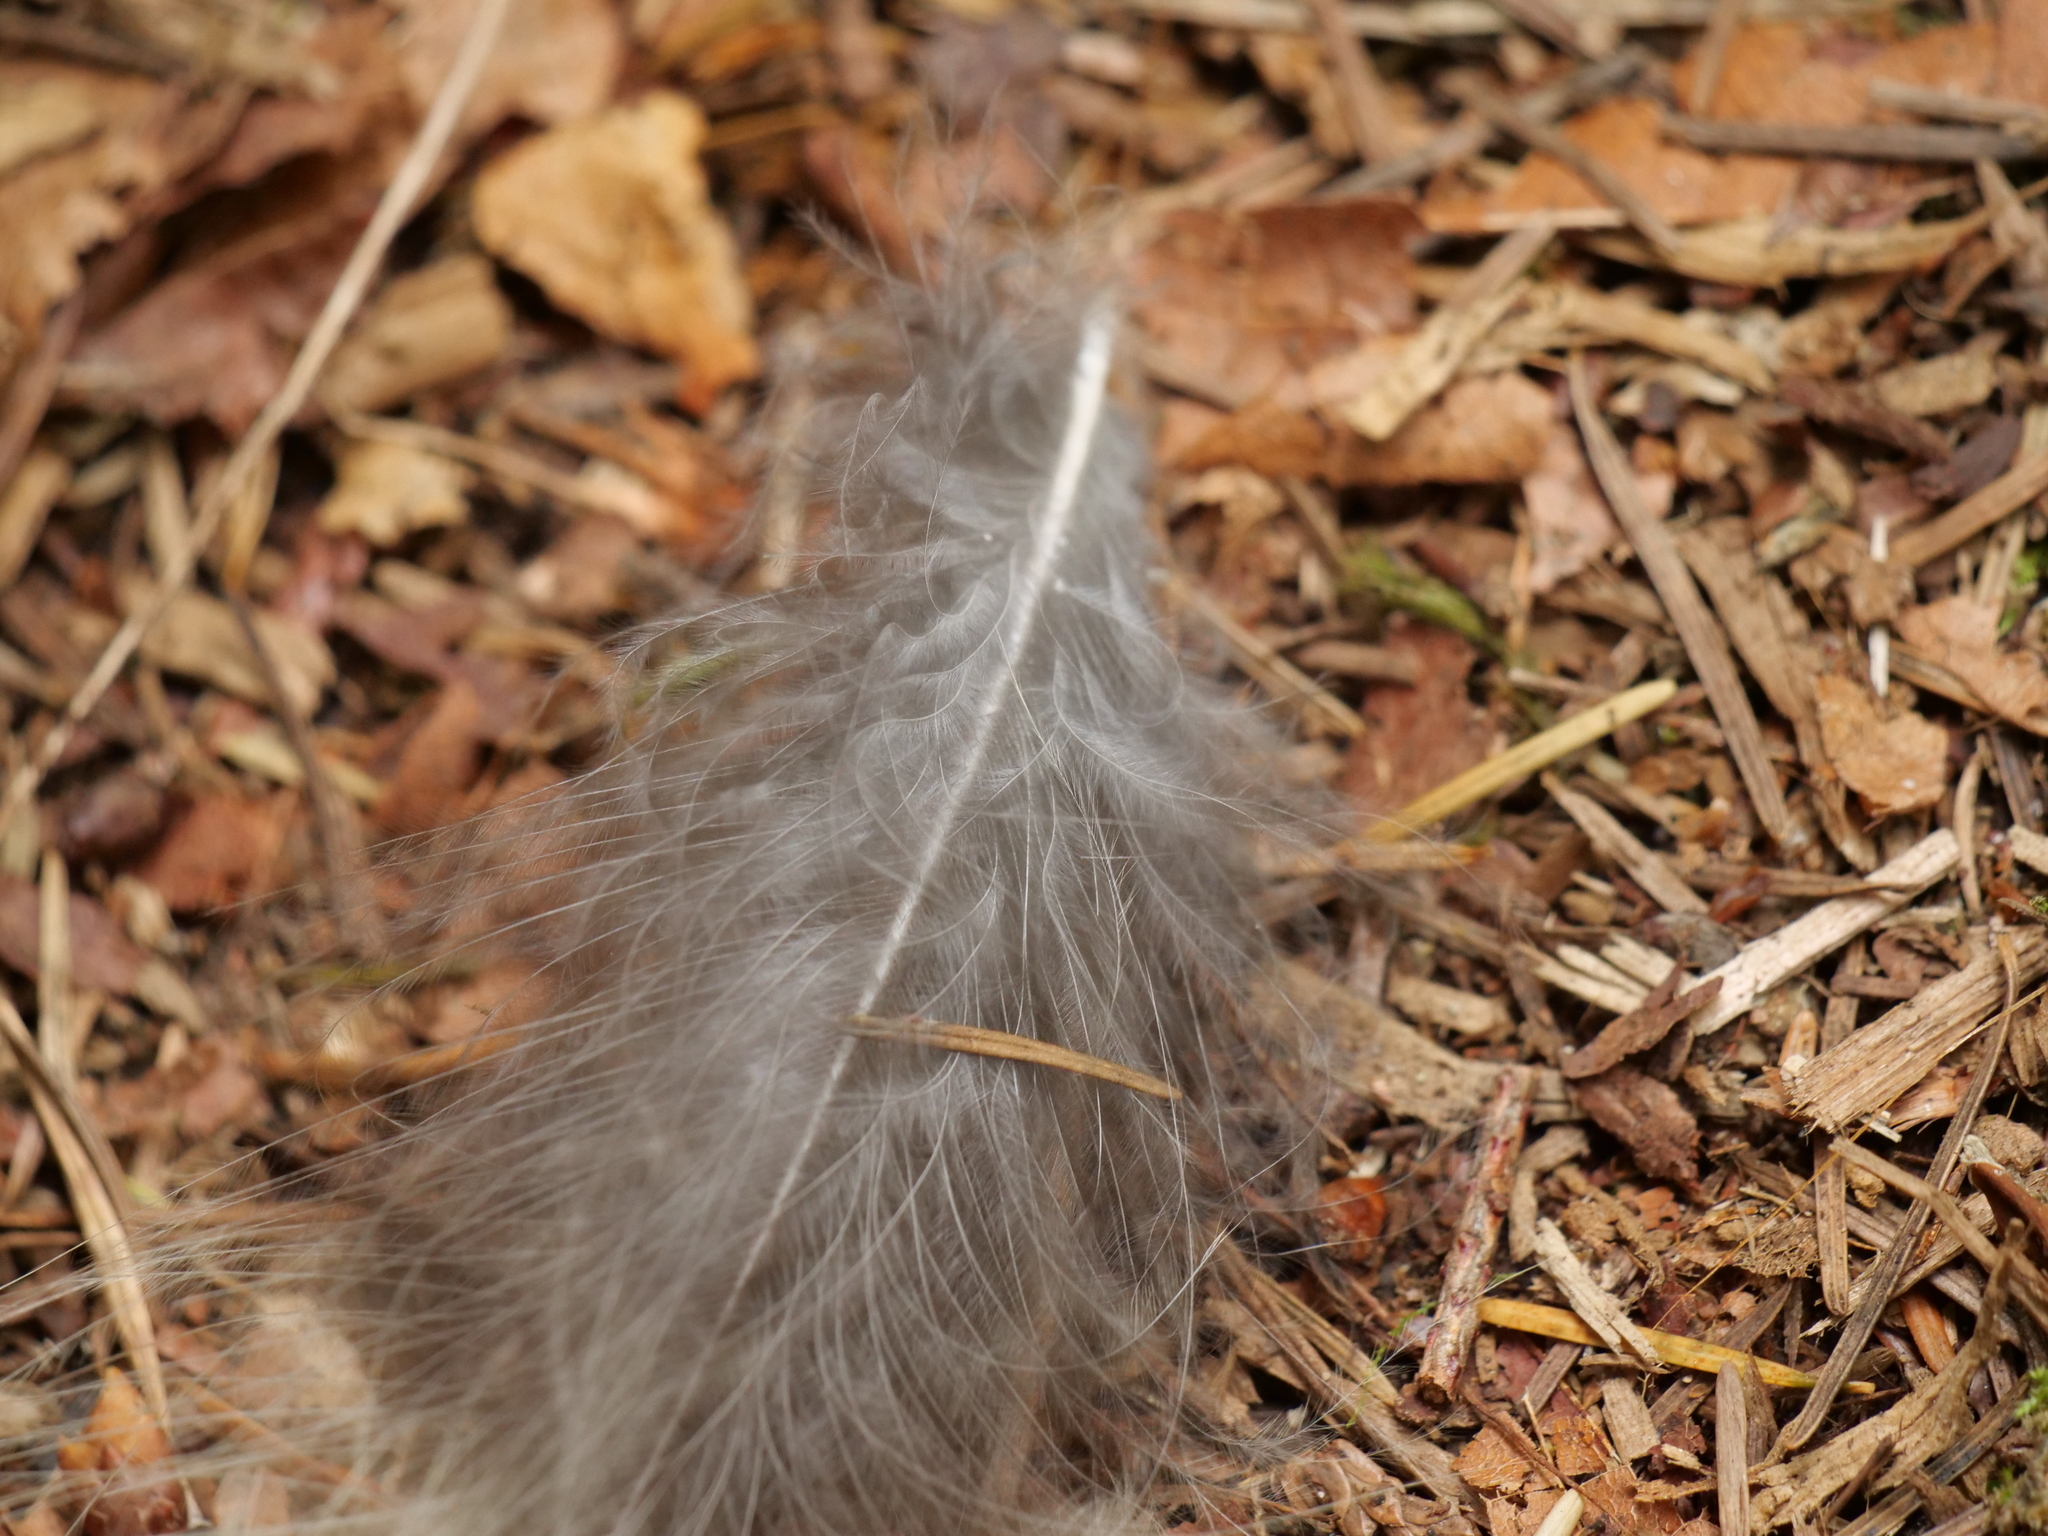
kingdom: Animalia
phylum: Chordata
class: Aves
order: Strigiformes
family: Strigidae
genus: Strix
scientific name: Strix varia
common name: Barred owl
